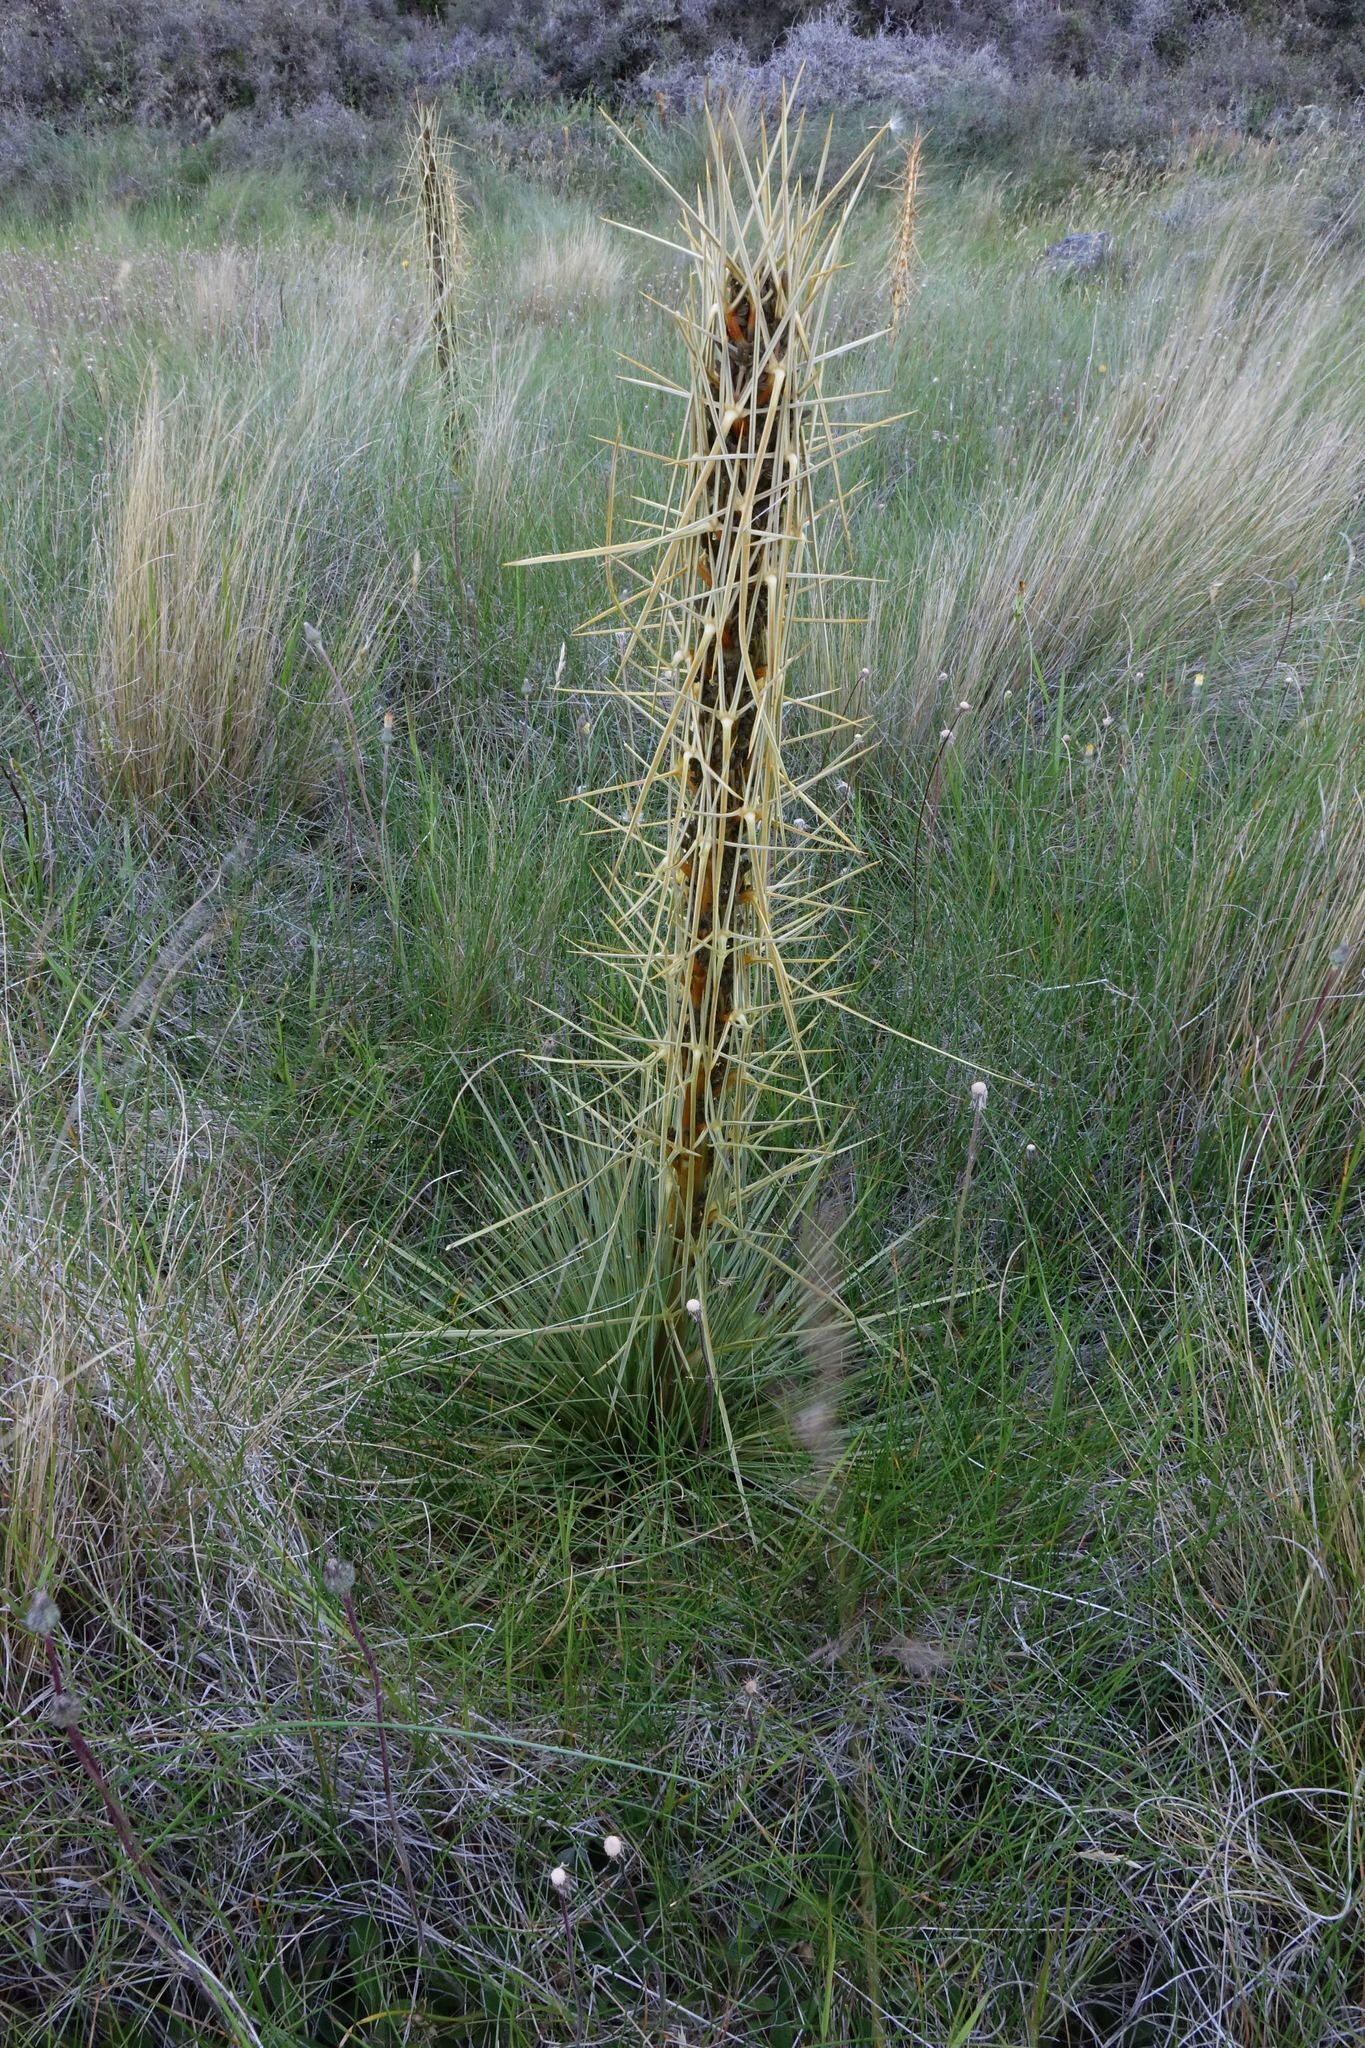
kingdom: Plantae
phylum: Tracheophyta
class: Magnoliopsida
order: Apiales
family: Apiaceae
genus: Aciphylla
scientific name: Aciphylla subflabellata
